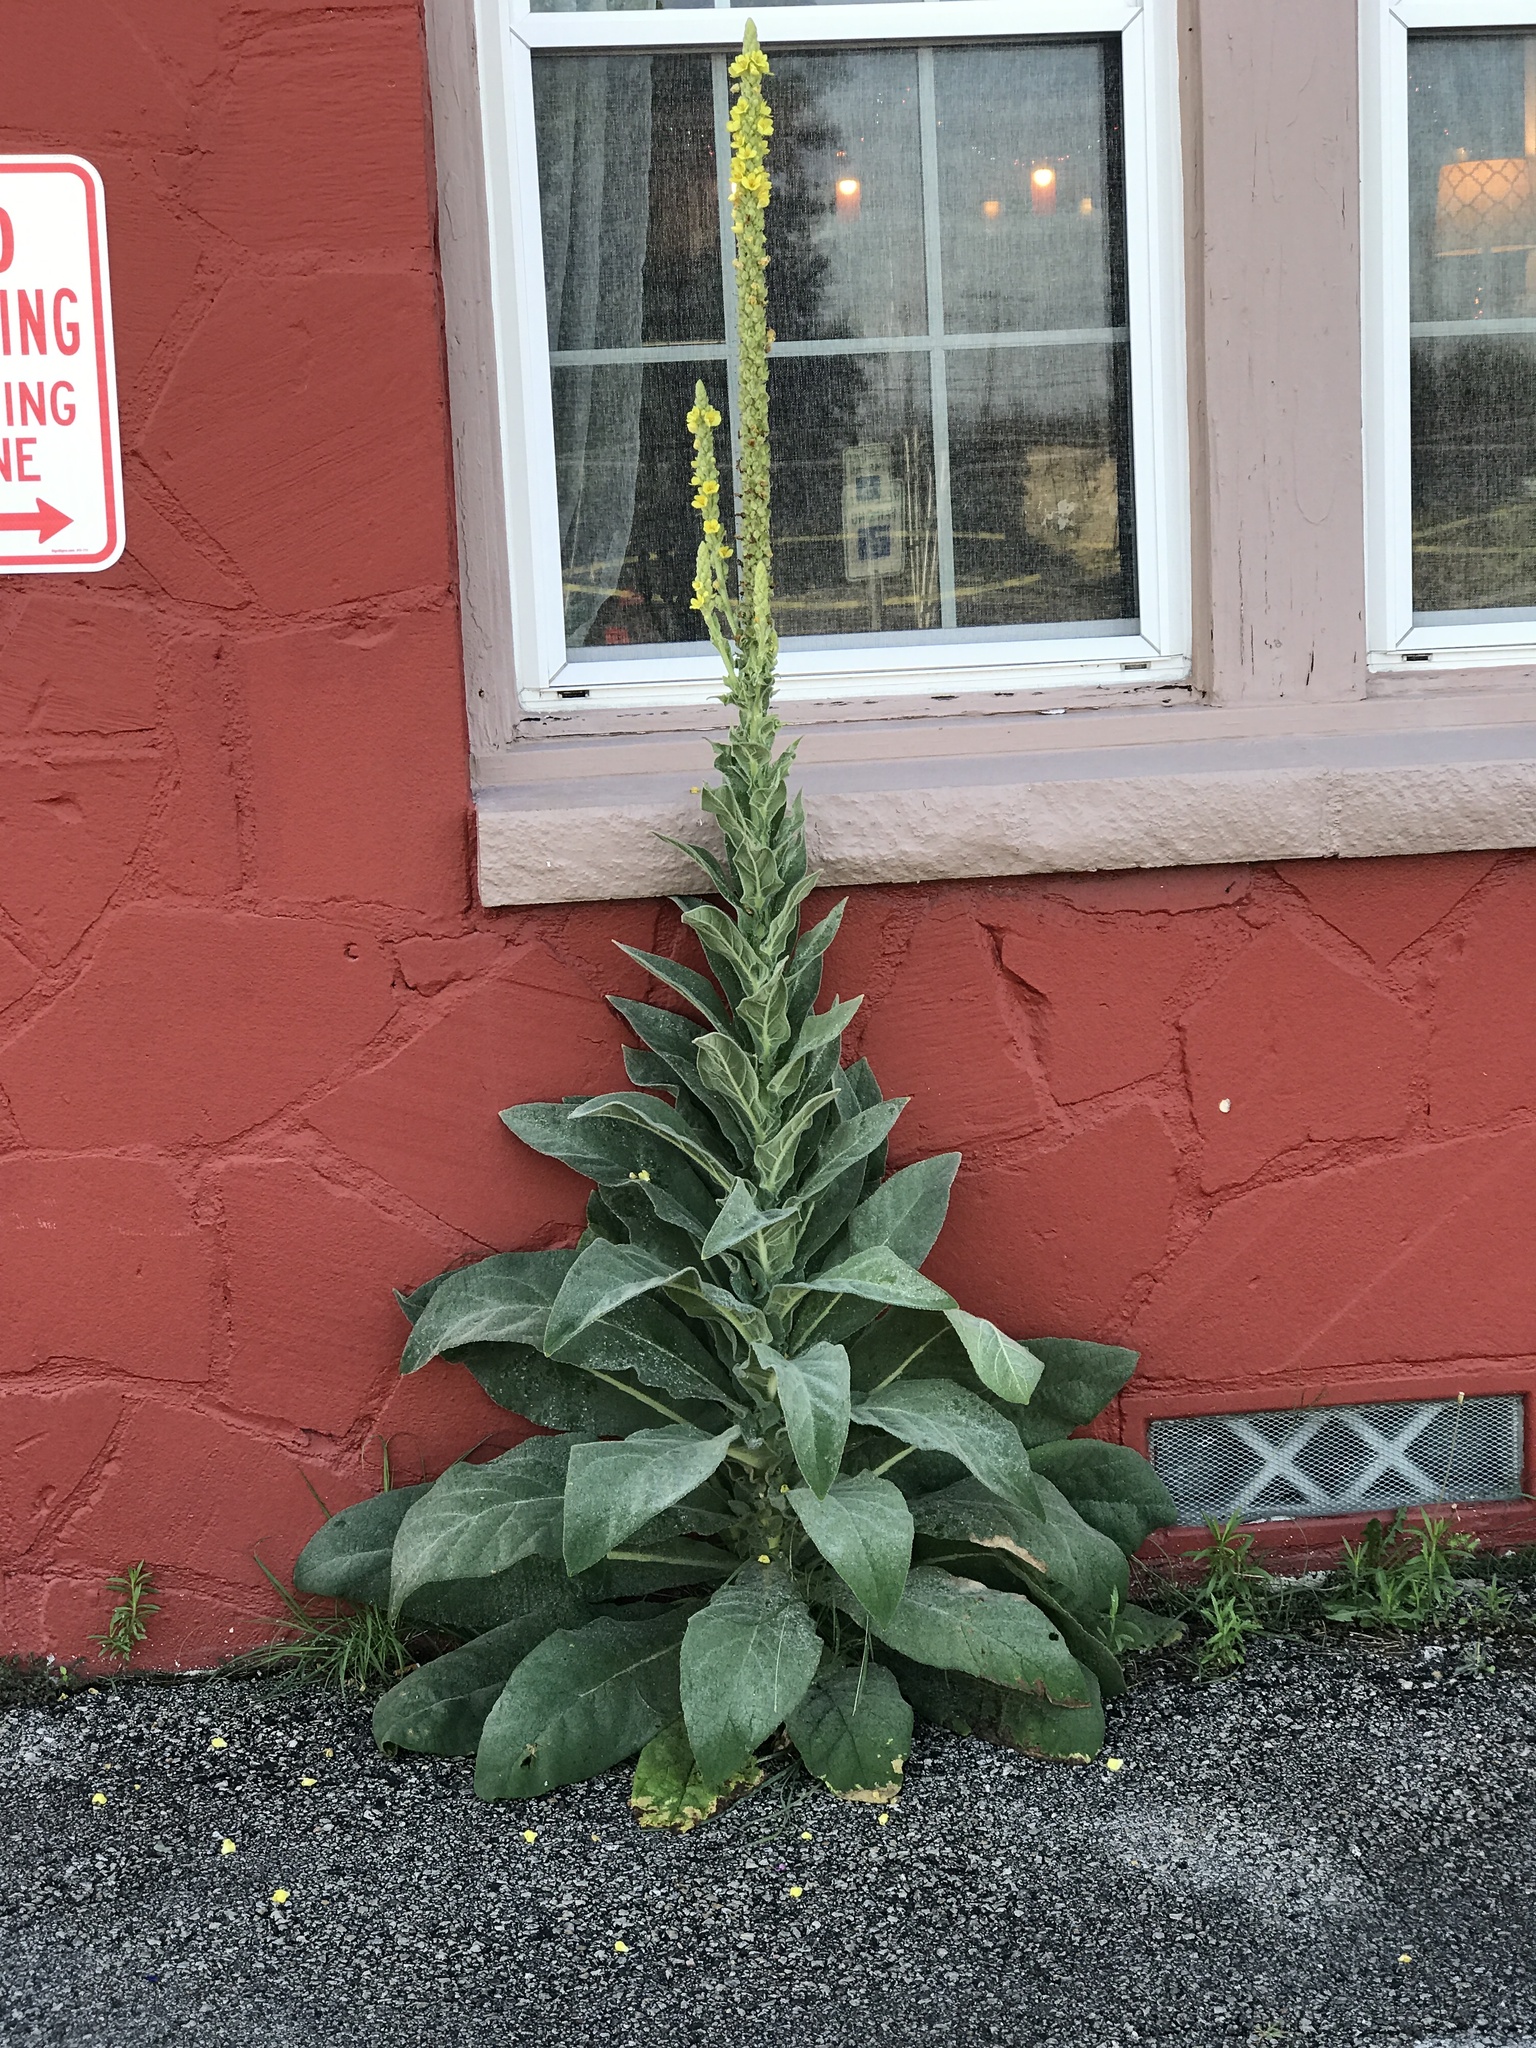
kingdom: Plantae
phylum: Tracheophyta
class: Magnoliopsida
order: Lamiales
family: Scrophulariaceae
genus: Verbascum
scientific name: Verbascum thapsus
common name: Common mullein
